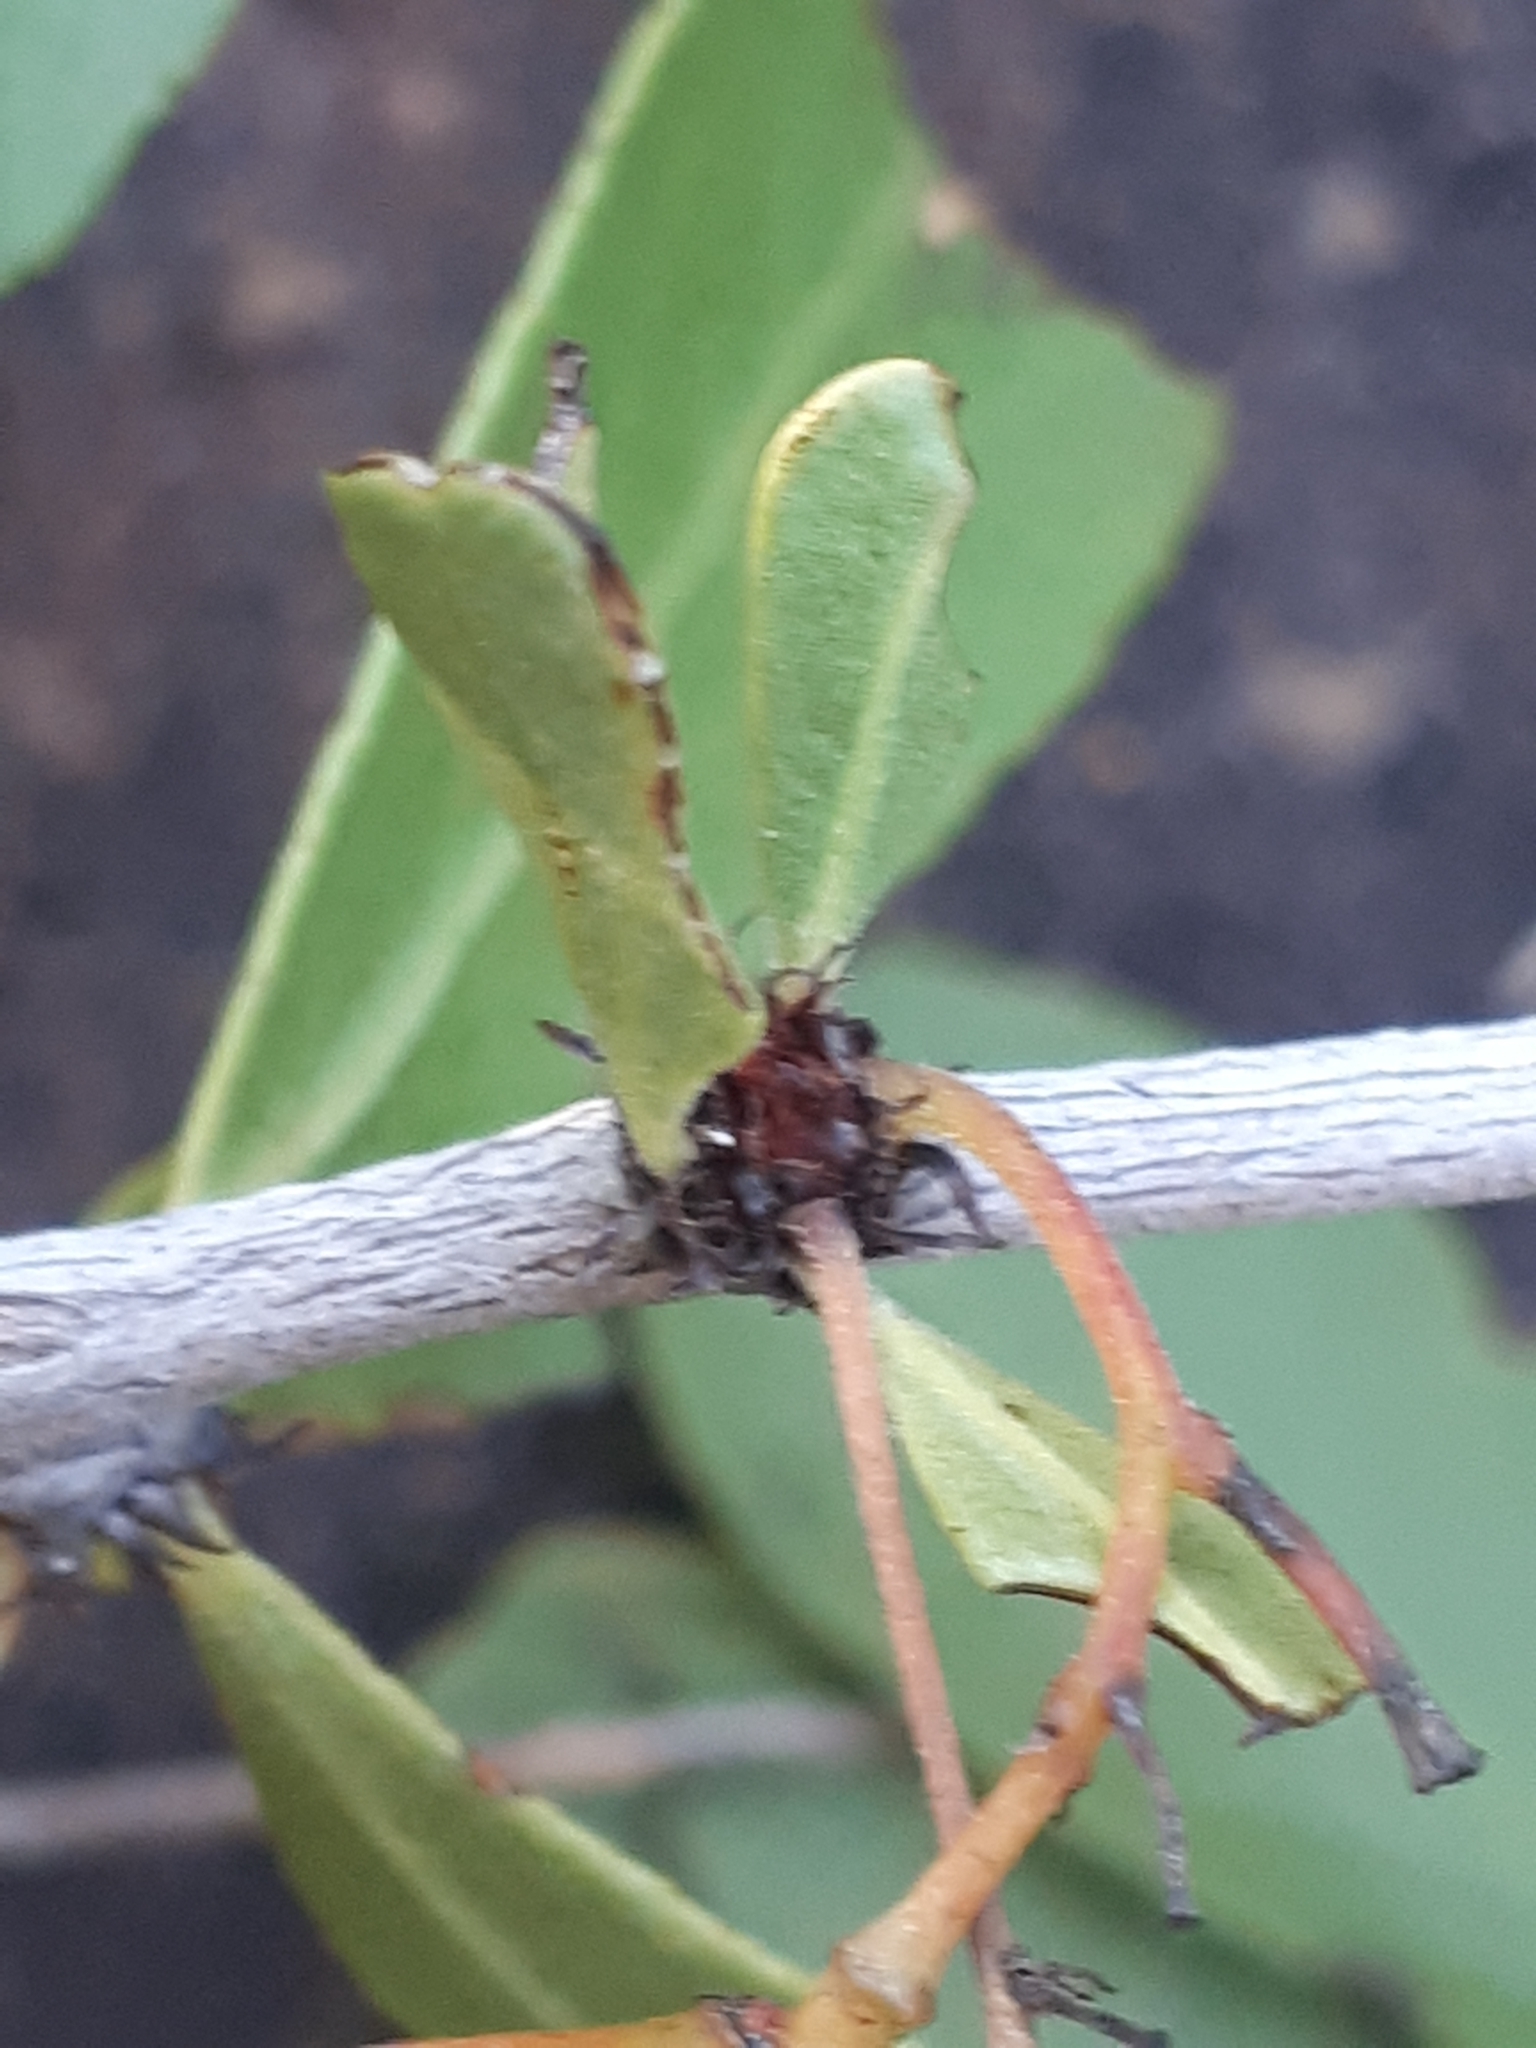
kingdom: Plantae
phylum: Tracheophyta
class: Magnoliopsida
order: Celastrales
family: Celastraceae
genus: Gymnosporia
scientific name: Gymnosporia tenuispina
